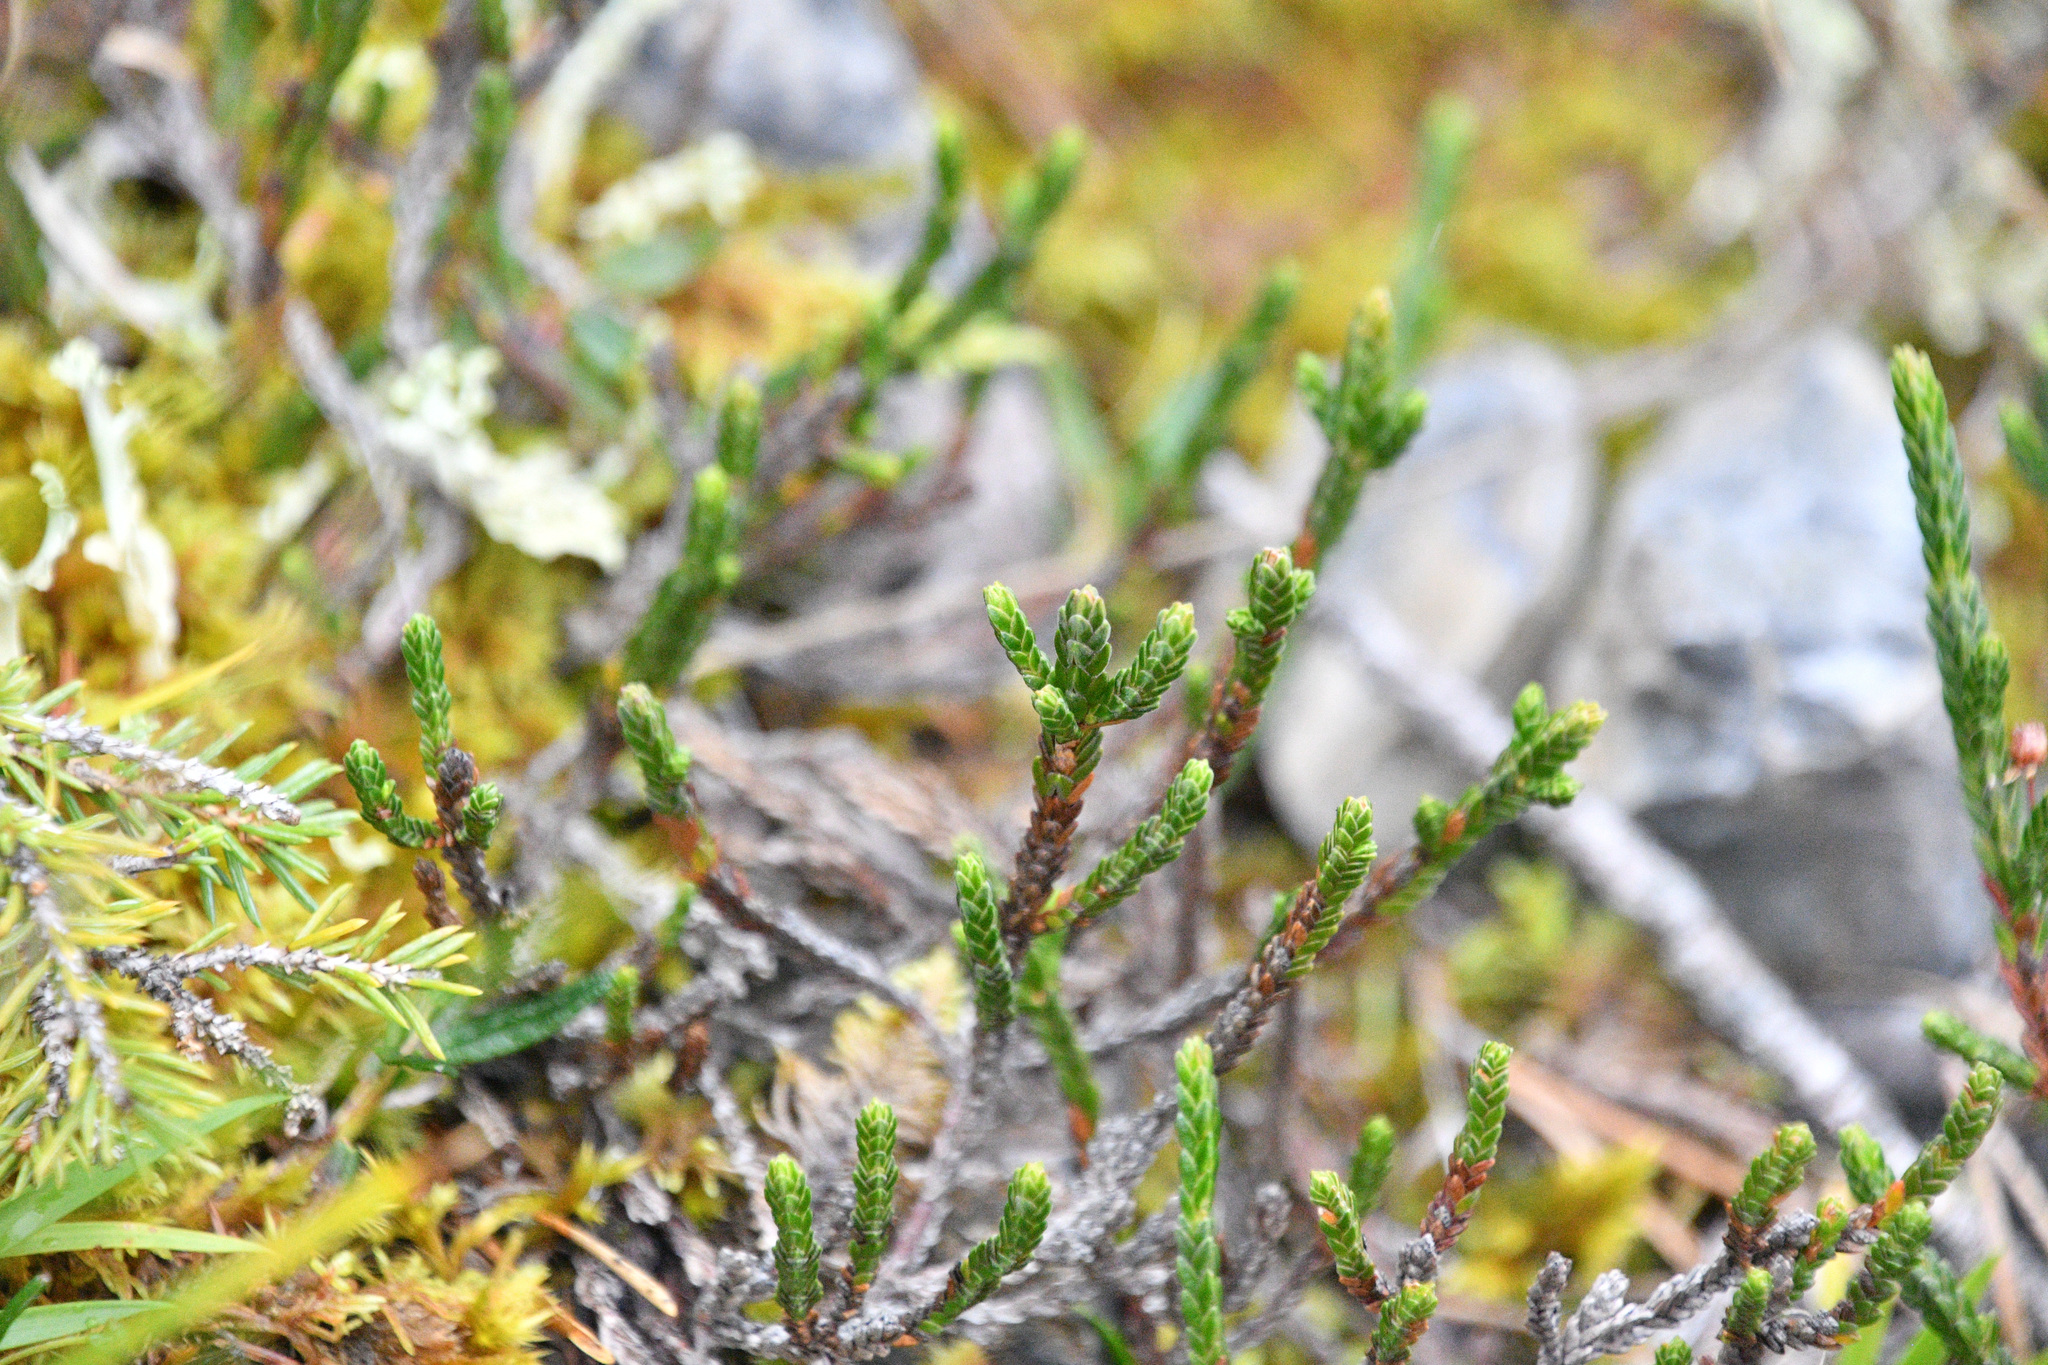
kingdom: Plantae
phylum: Tracheophyta
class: Magnoliopsida
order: Ericales
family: Ericaceae
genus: Cassiope
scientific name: Cassiope tetragona
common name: Arctic bell heather
